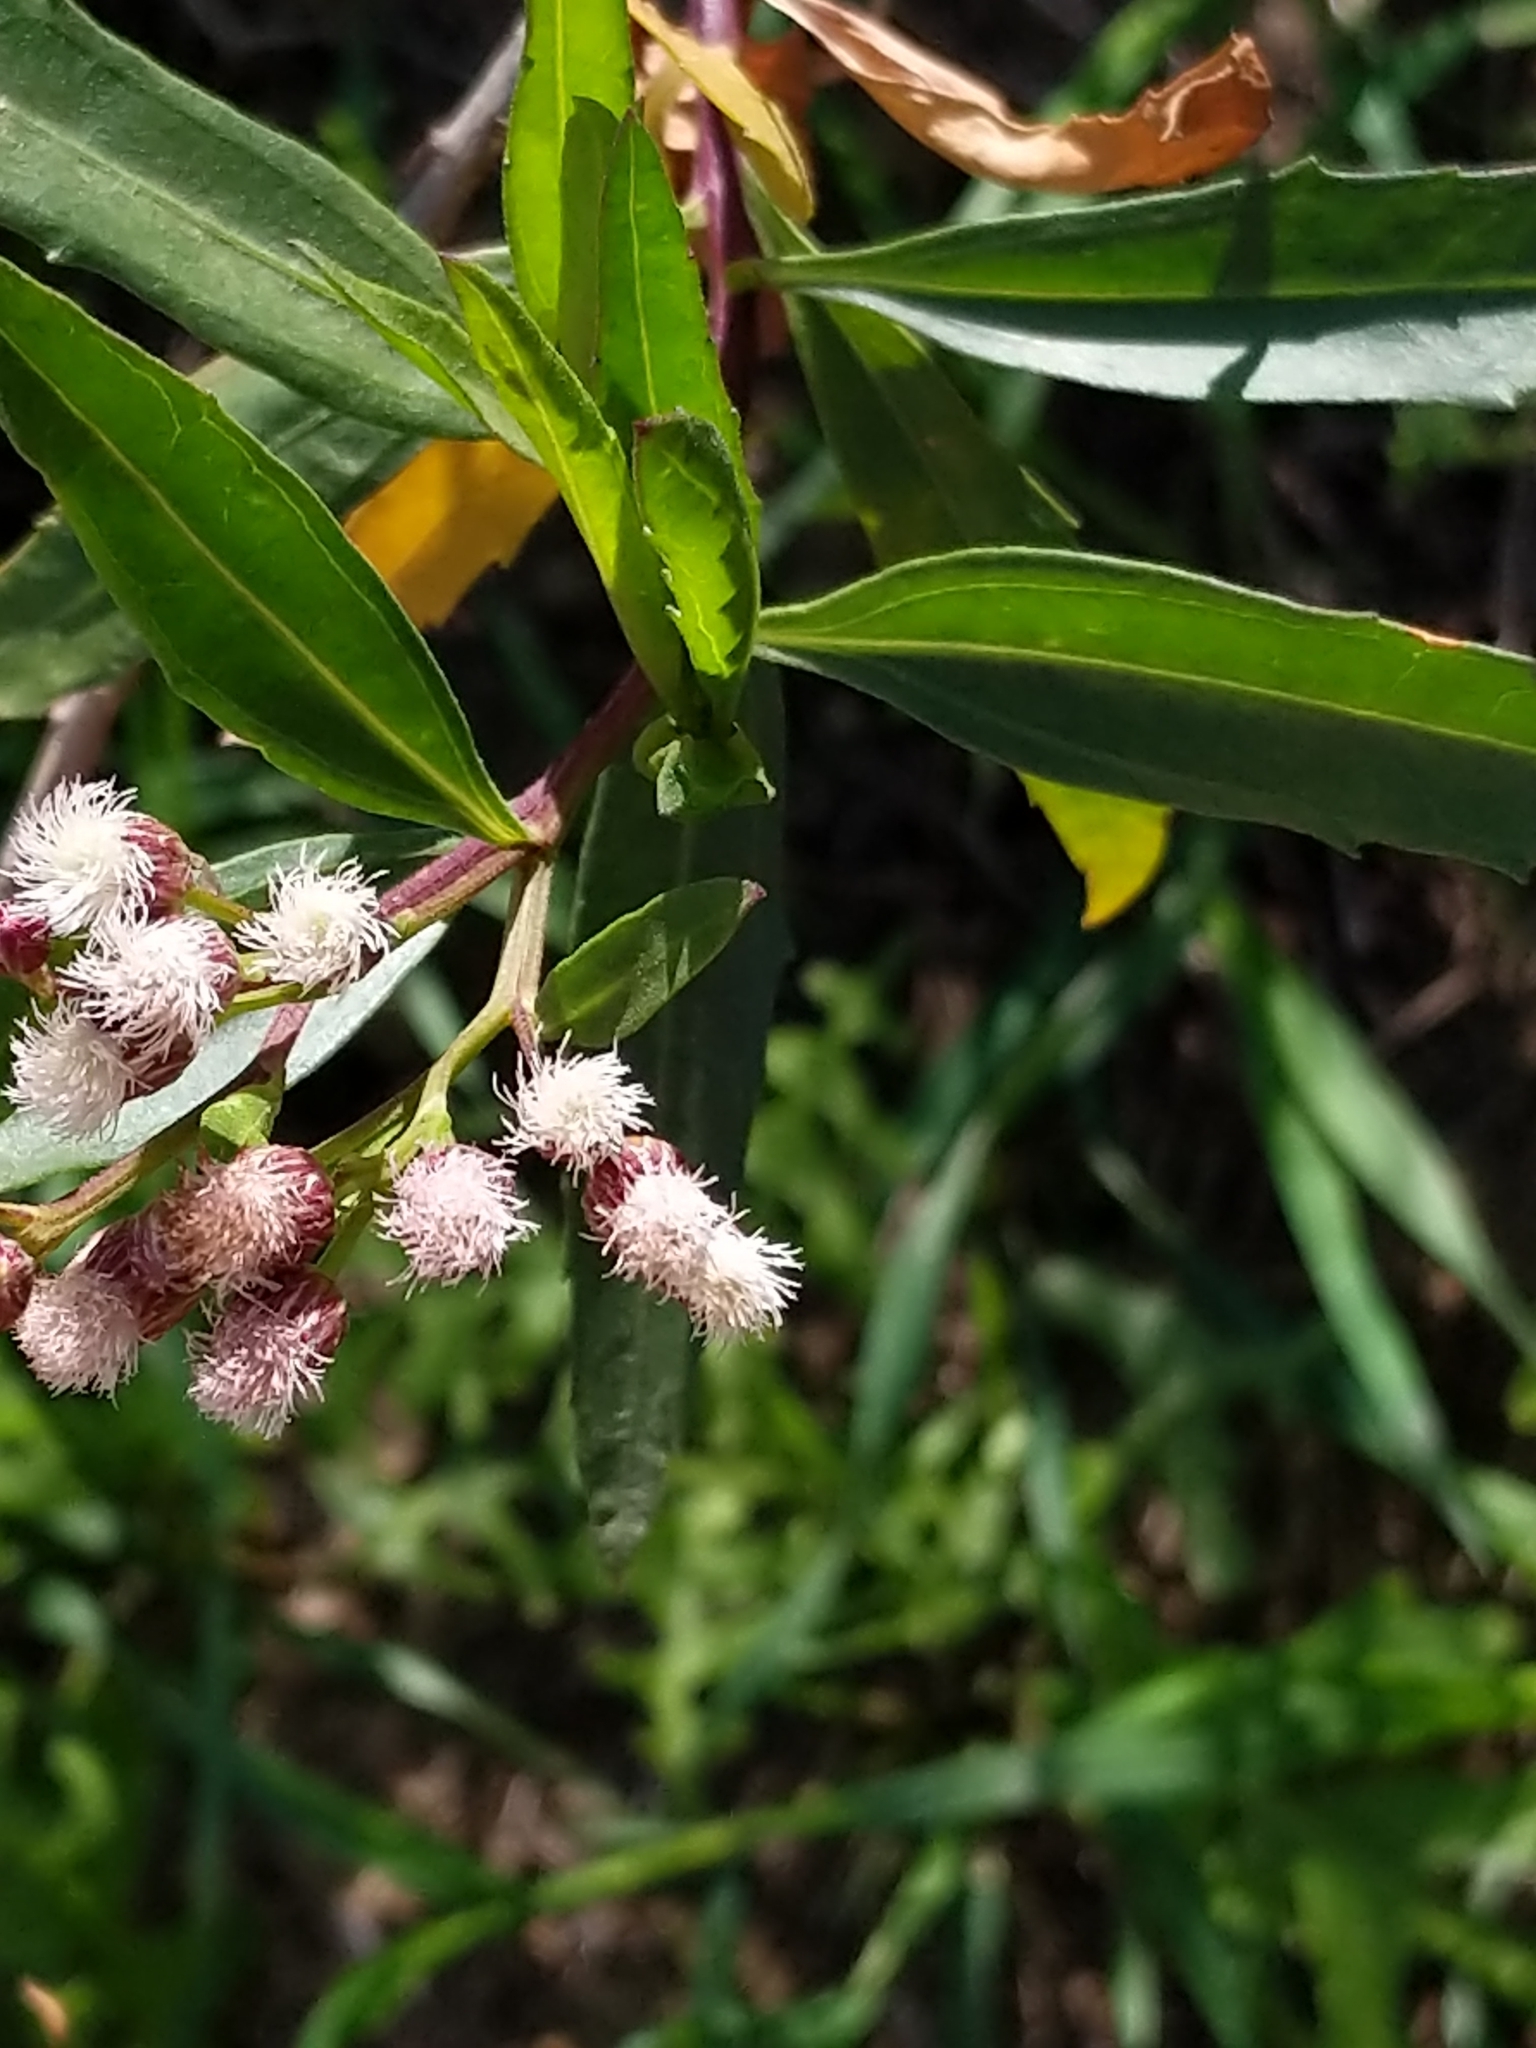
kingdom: Plantae
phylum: Tracheophyta
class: Magnoliopsida
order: Asterales
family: Asteraceae
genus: Baccharis
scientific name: Baccharis salicifolia
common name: Sticky baccharis
